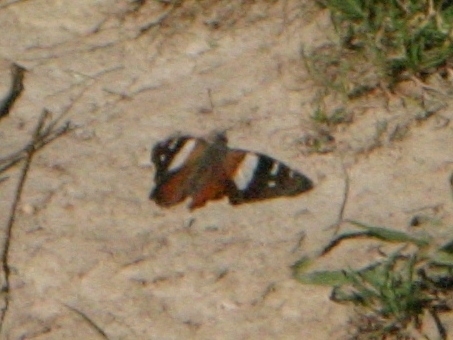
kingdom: Animalia
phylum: Arthropoda
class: Insecta
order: Lepidoptera
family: Nymphalidae
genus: Vanessa
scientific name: Vanessa itea
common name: Yellow admiral
